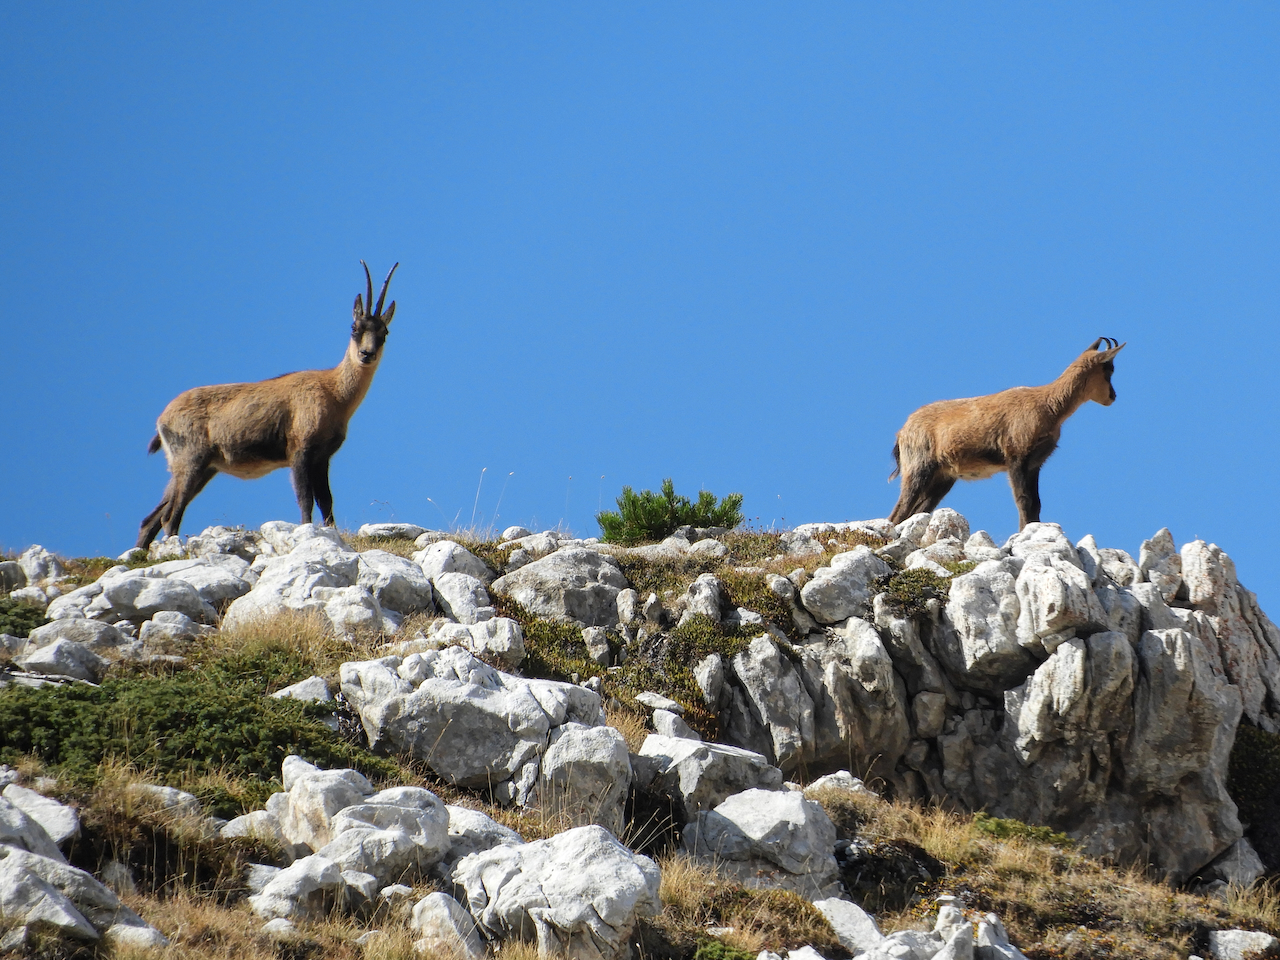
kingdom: Animalia
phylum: Chordata
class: Mammalia
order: Artiodactyla
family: Bovidae
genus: Rupicapra
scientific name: Rupicapra pyrenaica
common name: Pyrenean chamois
